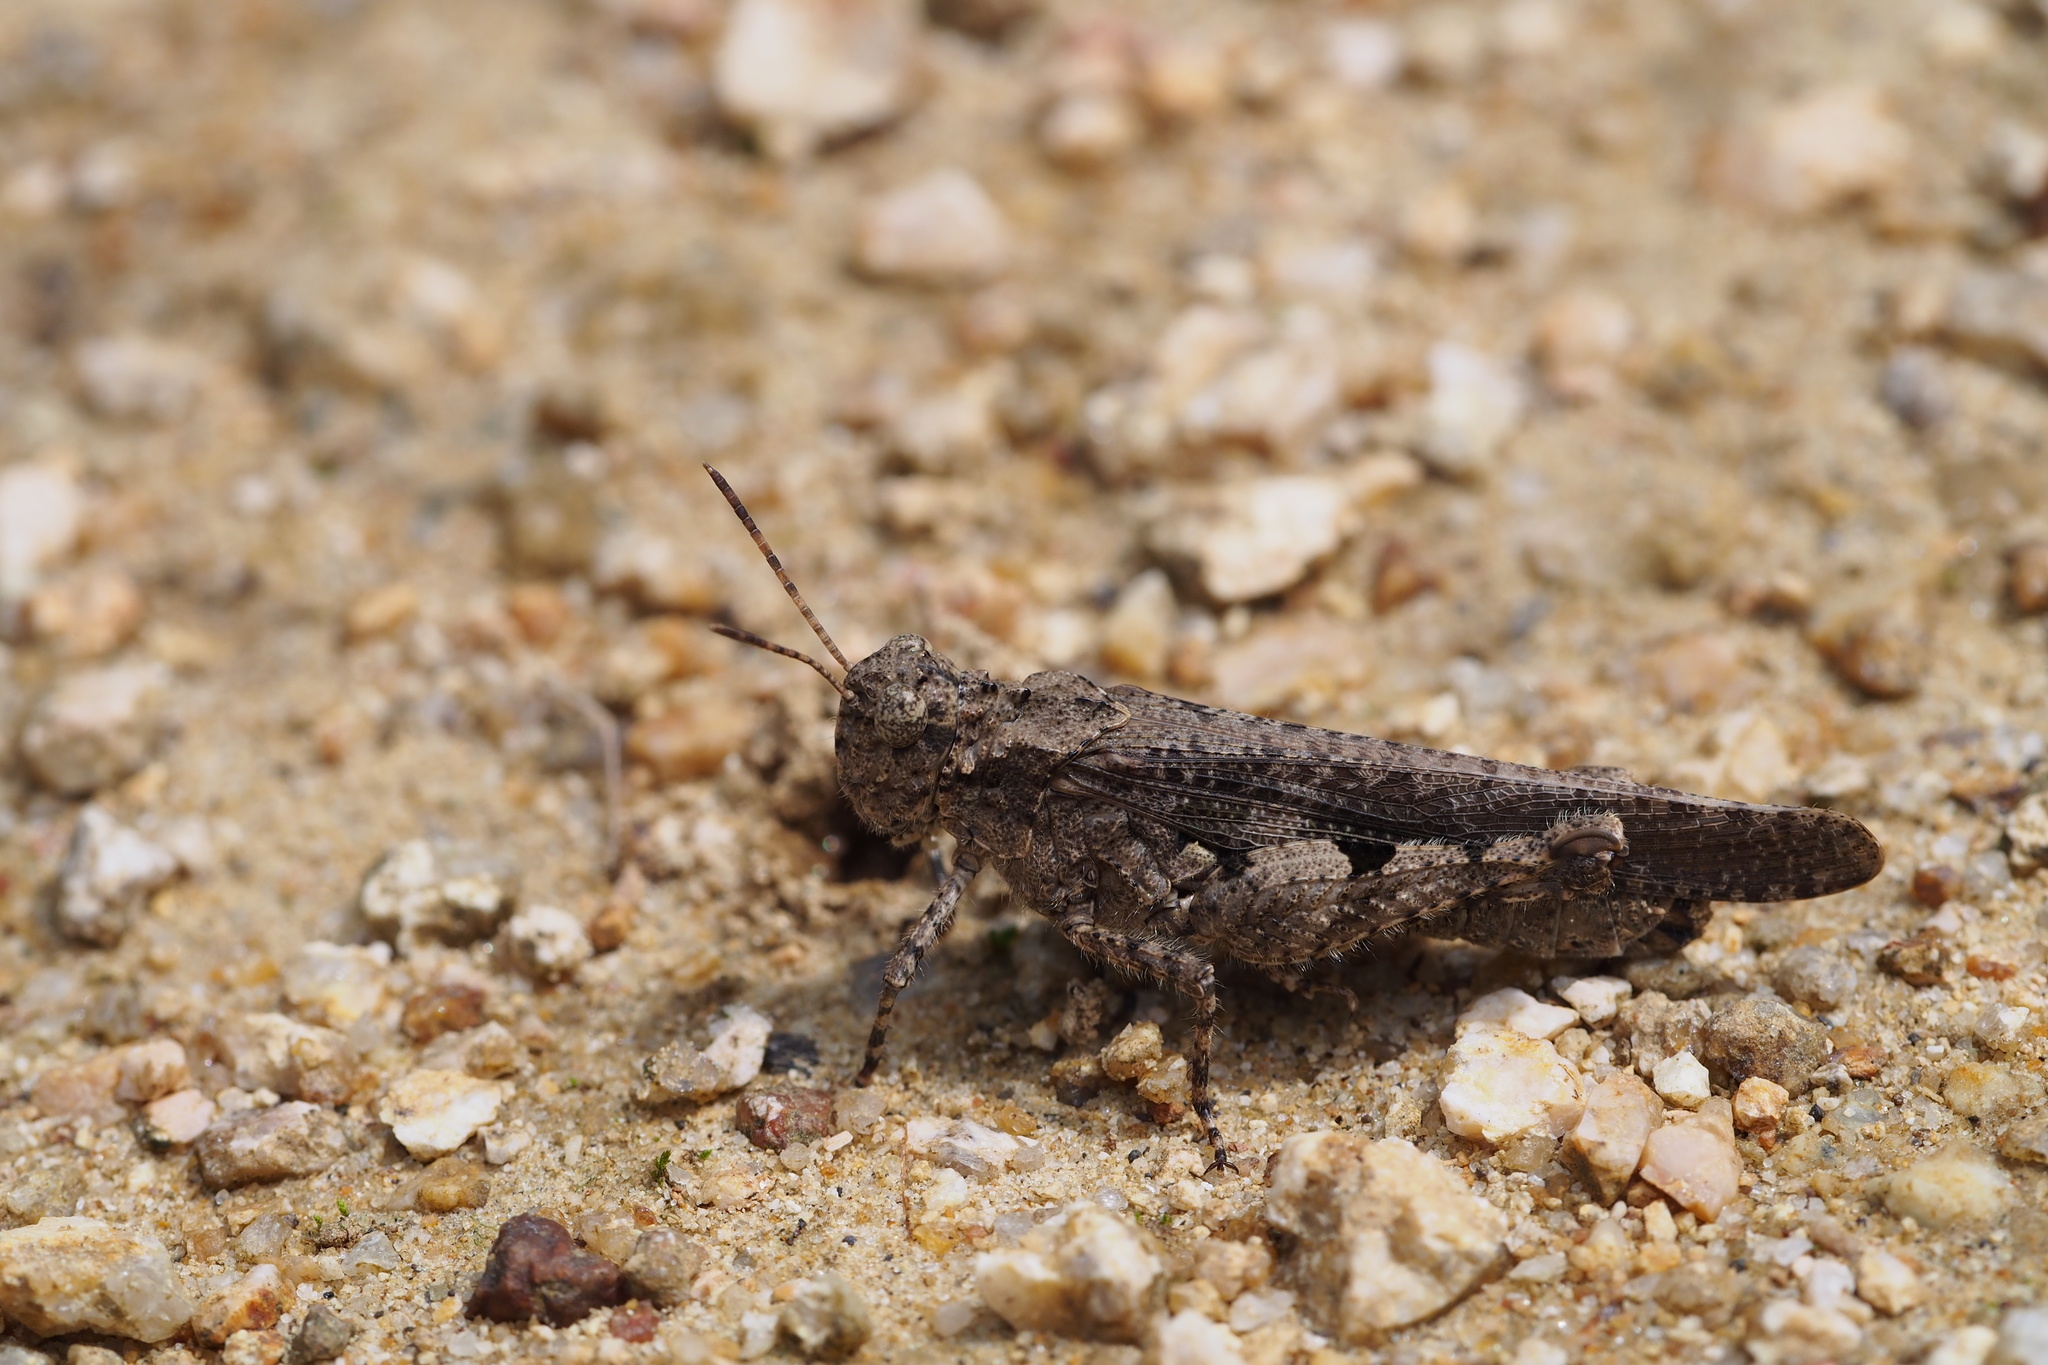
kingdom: Animalia
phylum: Arthropoda
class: Insecta
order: Orthoptera
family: Acrididae
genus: Trilophidia
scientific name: Trilophidia annulata
